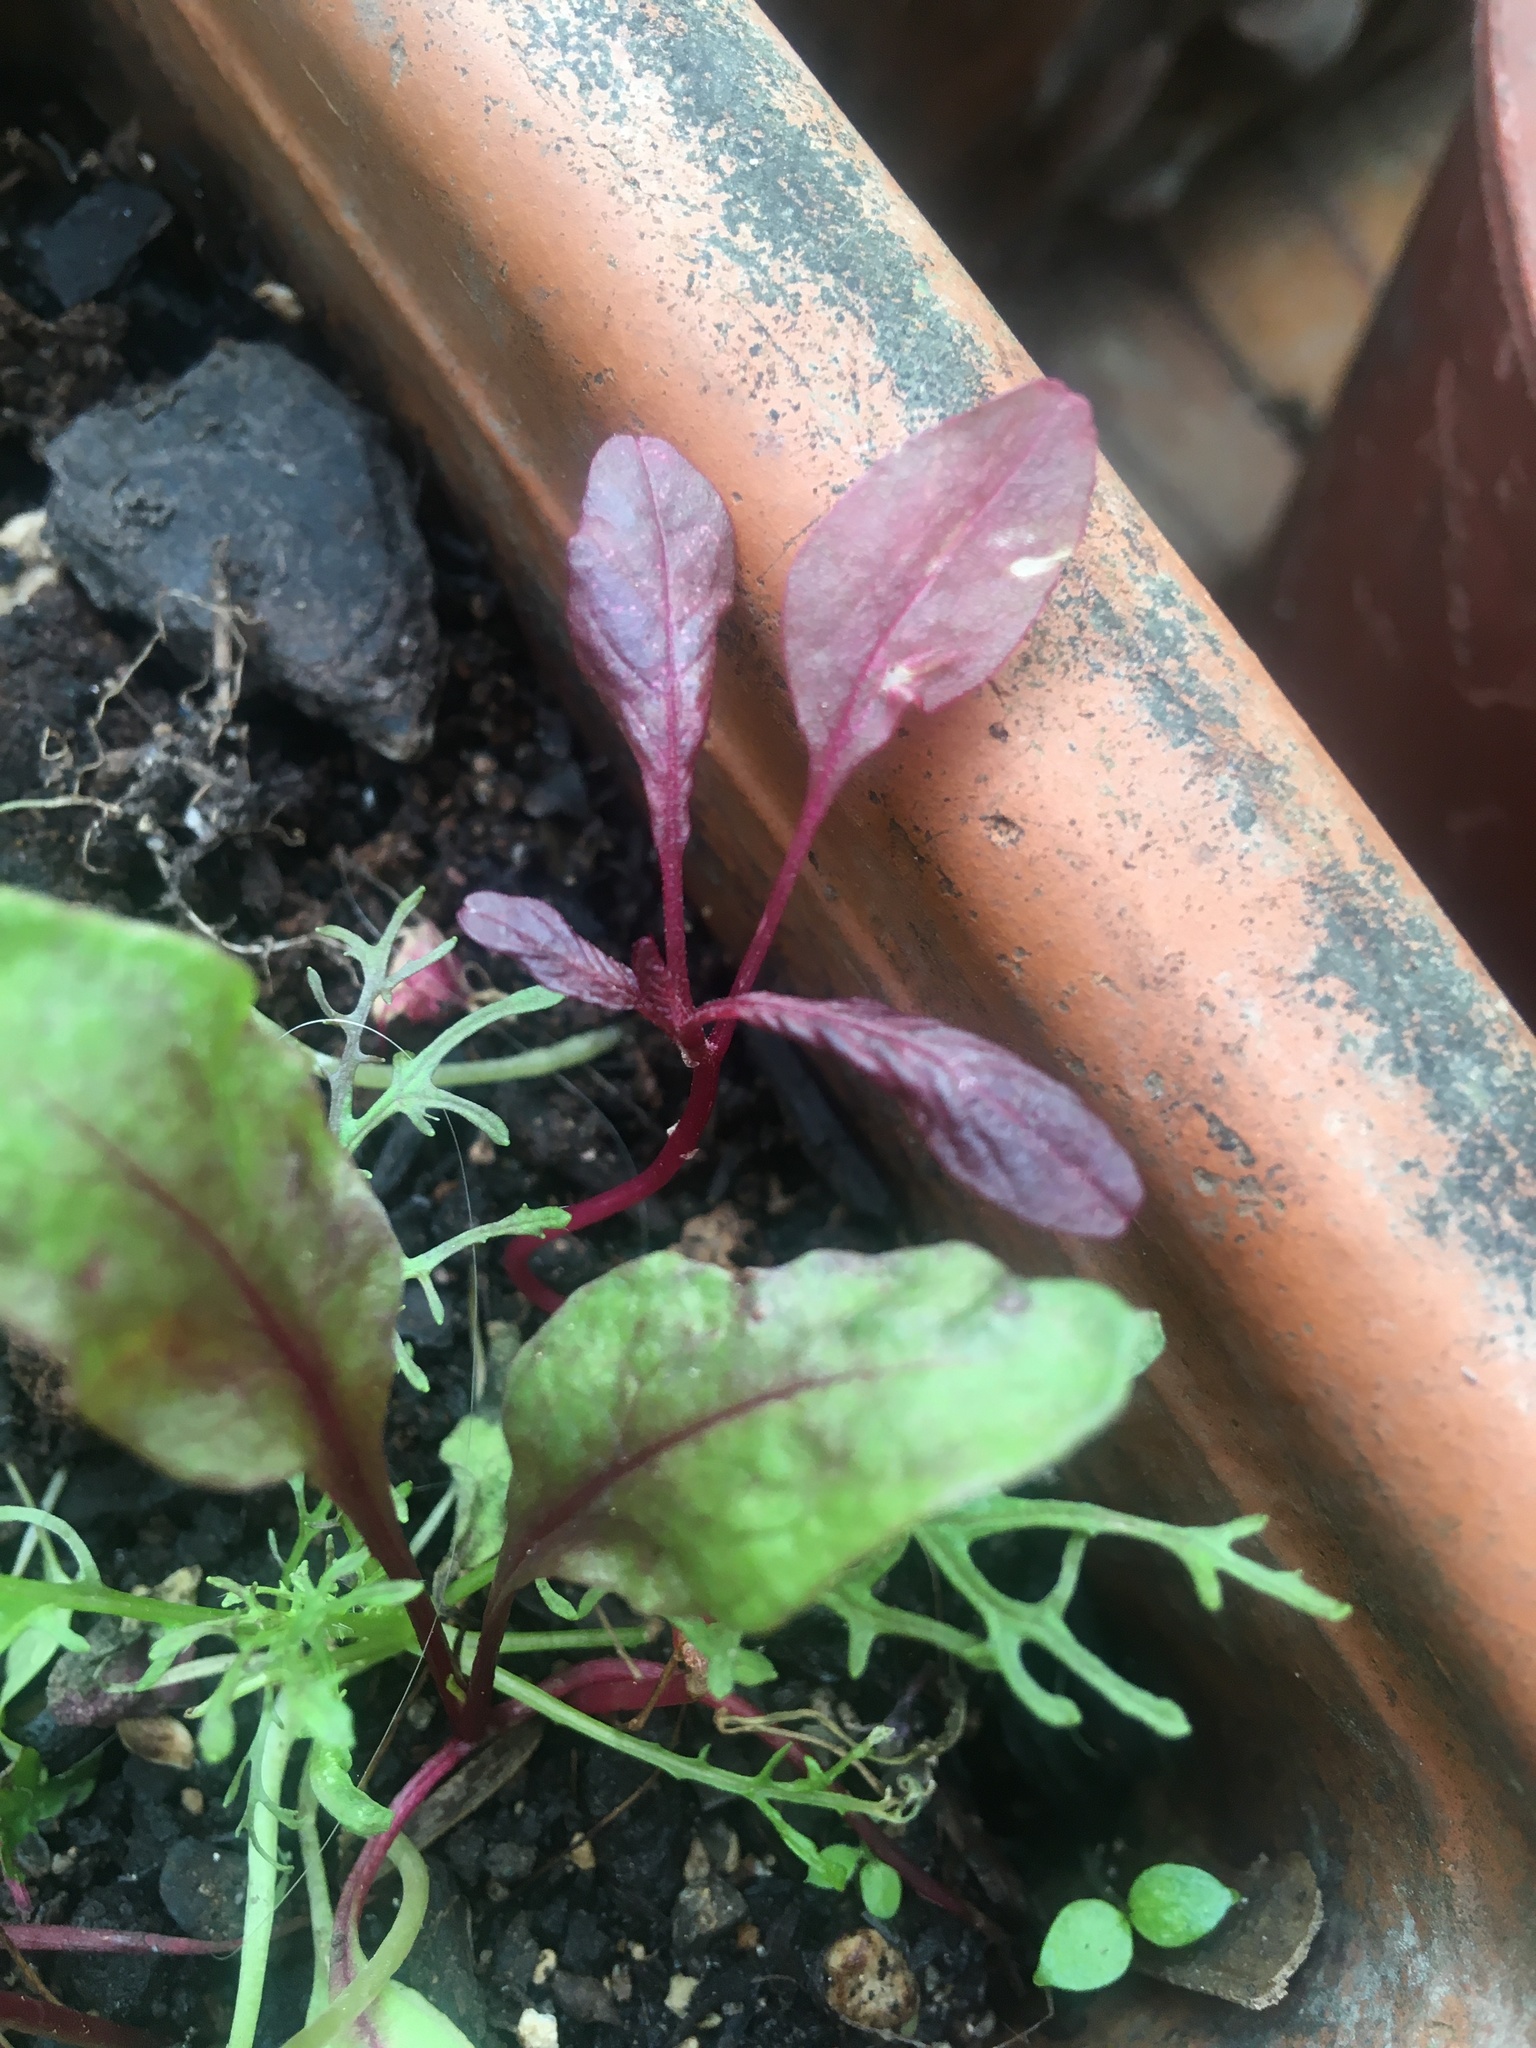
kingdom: Plantae
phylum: Tracheophyta
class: Magnoliopsida
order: Caryophyllales
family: Amaranthaceae
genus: Amaranthus
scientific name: Amaranthus cruentus
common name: Purple amaranth
